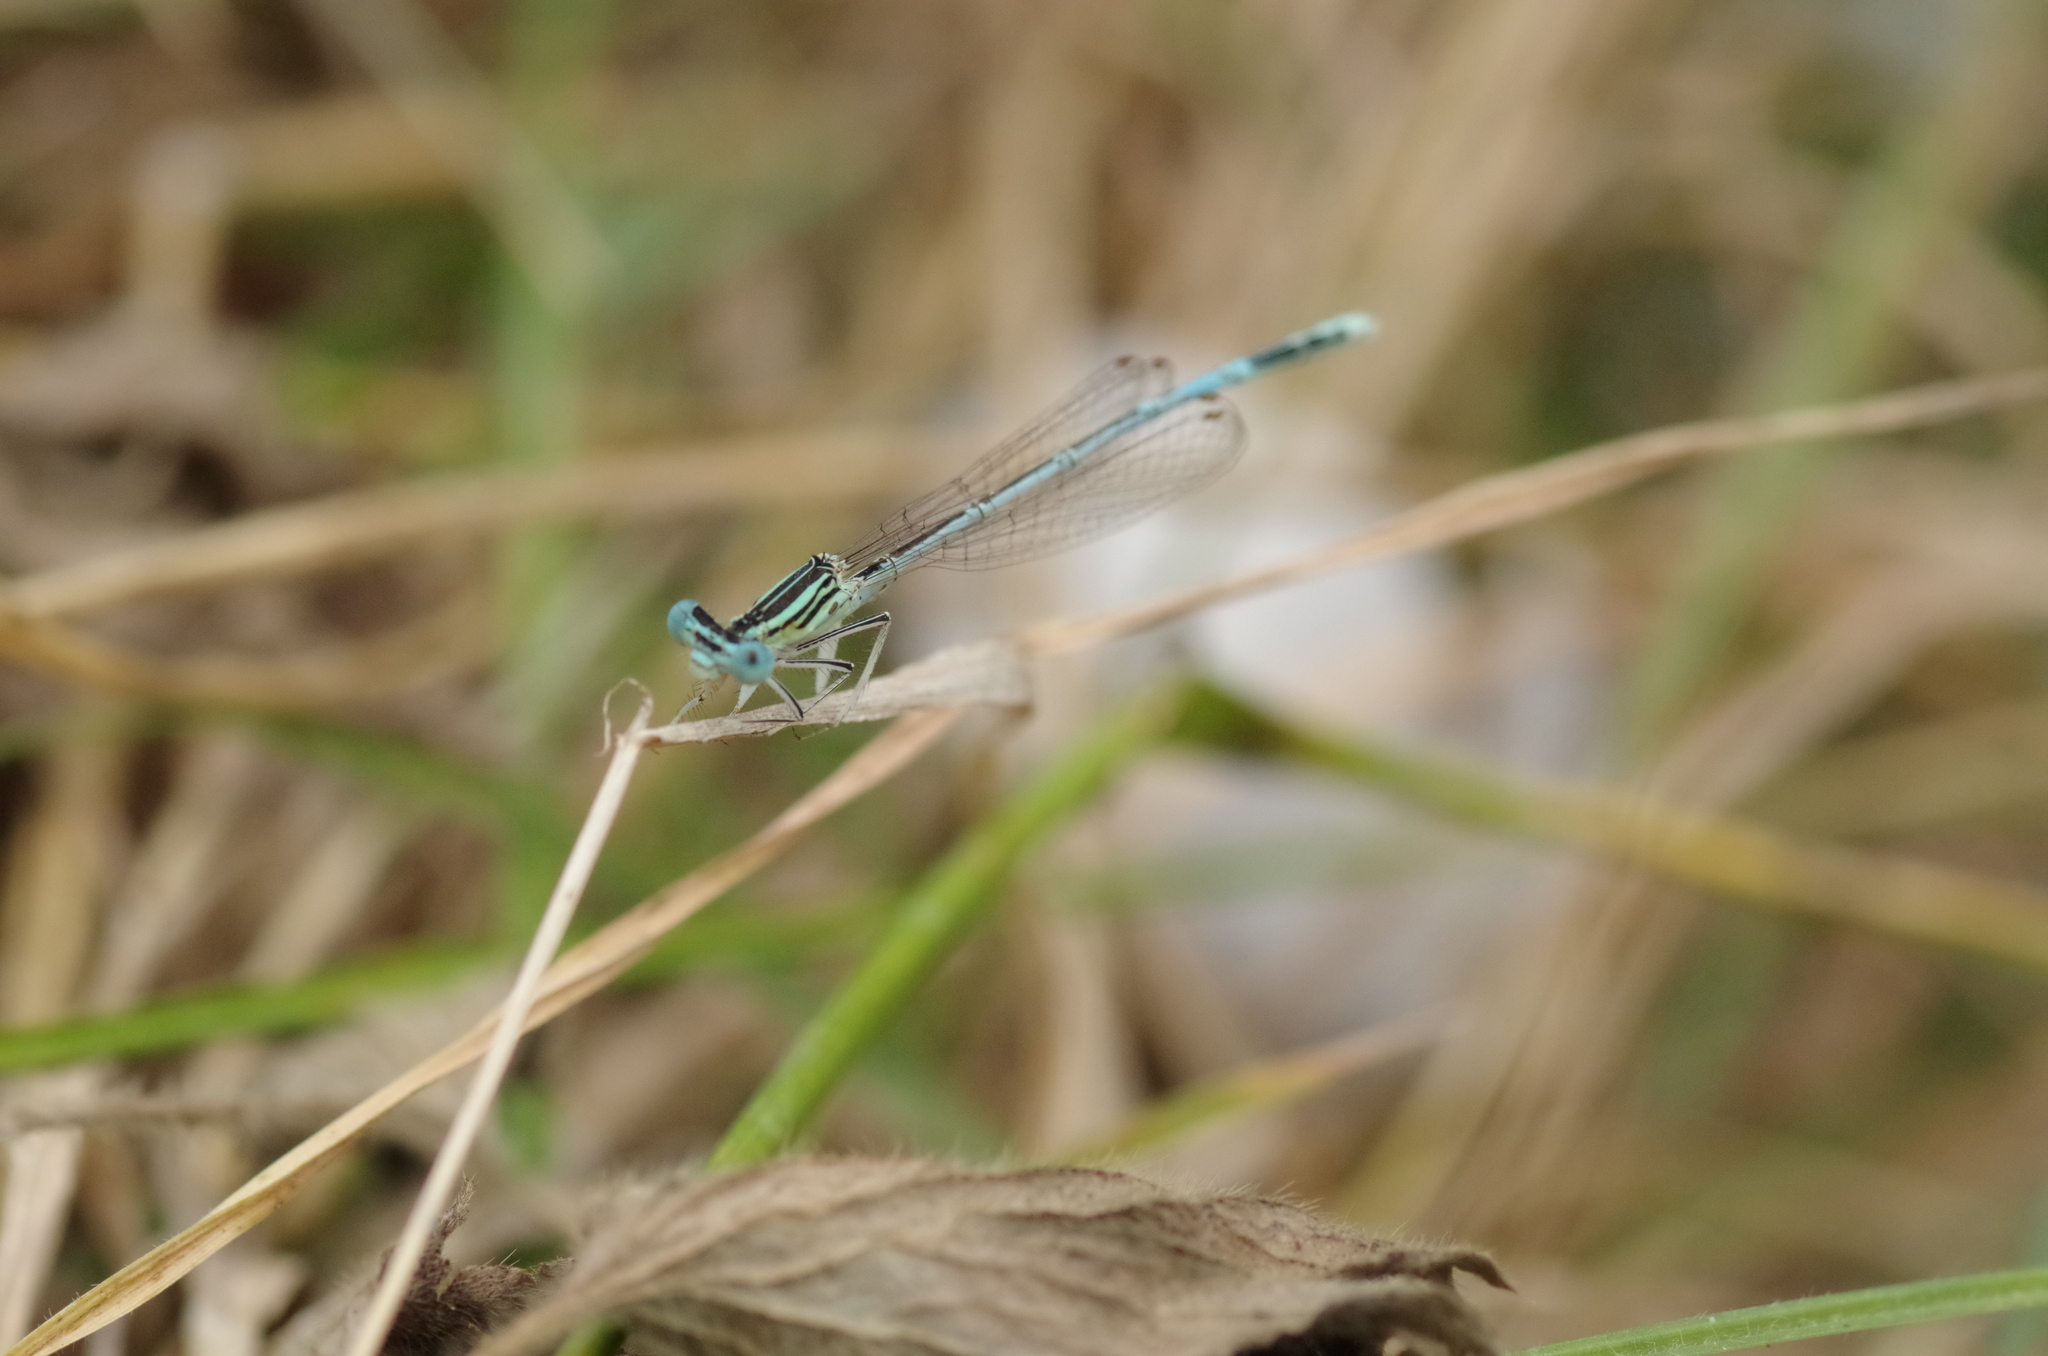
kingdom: Animalia
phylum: Arthropoda
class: Insecta
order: Odonata
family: Platycnemididae
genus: Platycnemis
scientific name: Platycnemis pennipes
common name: White-legged damselfly
